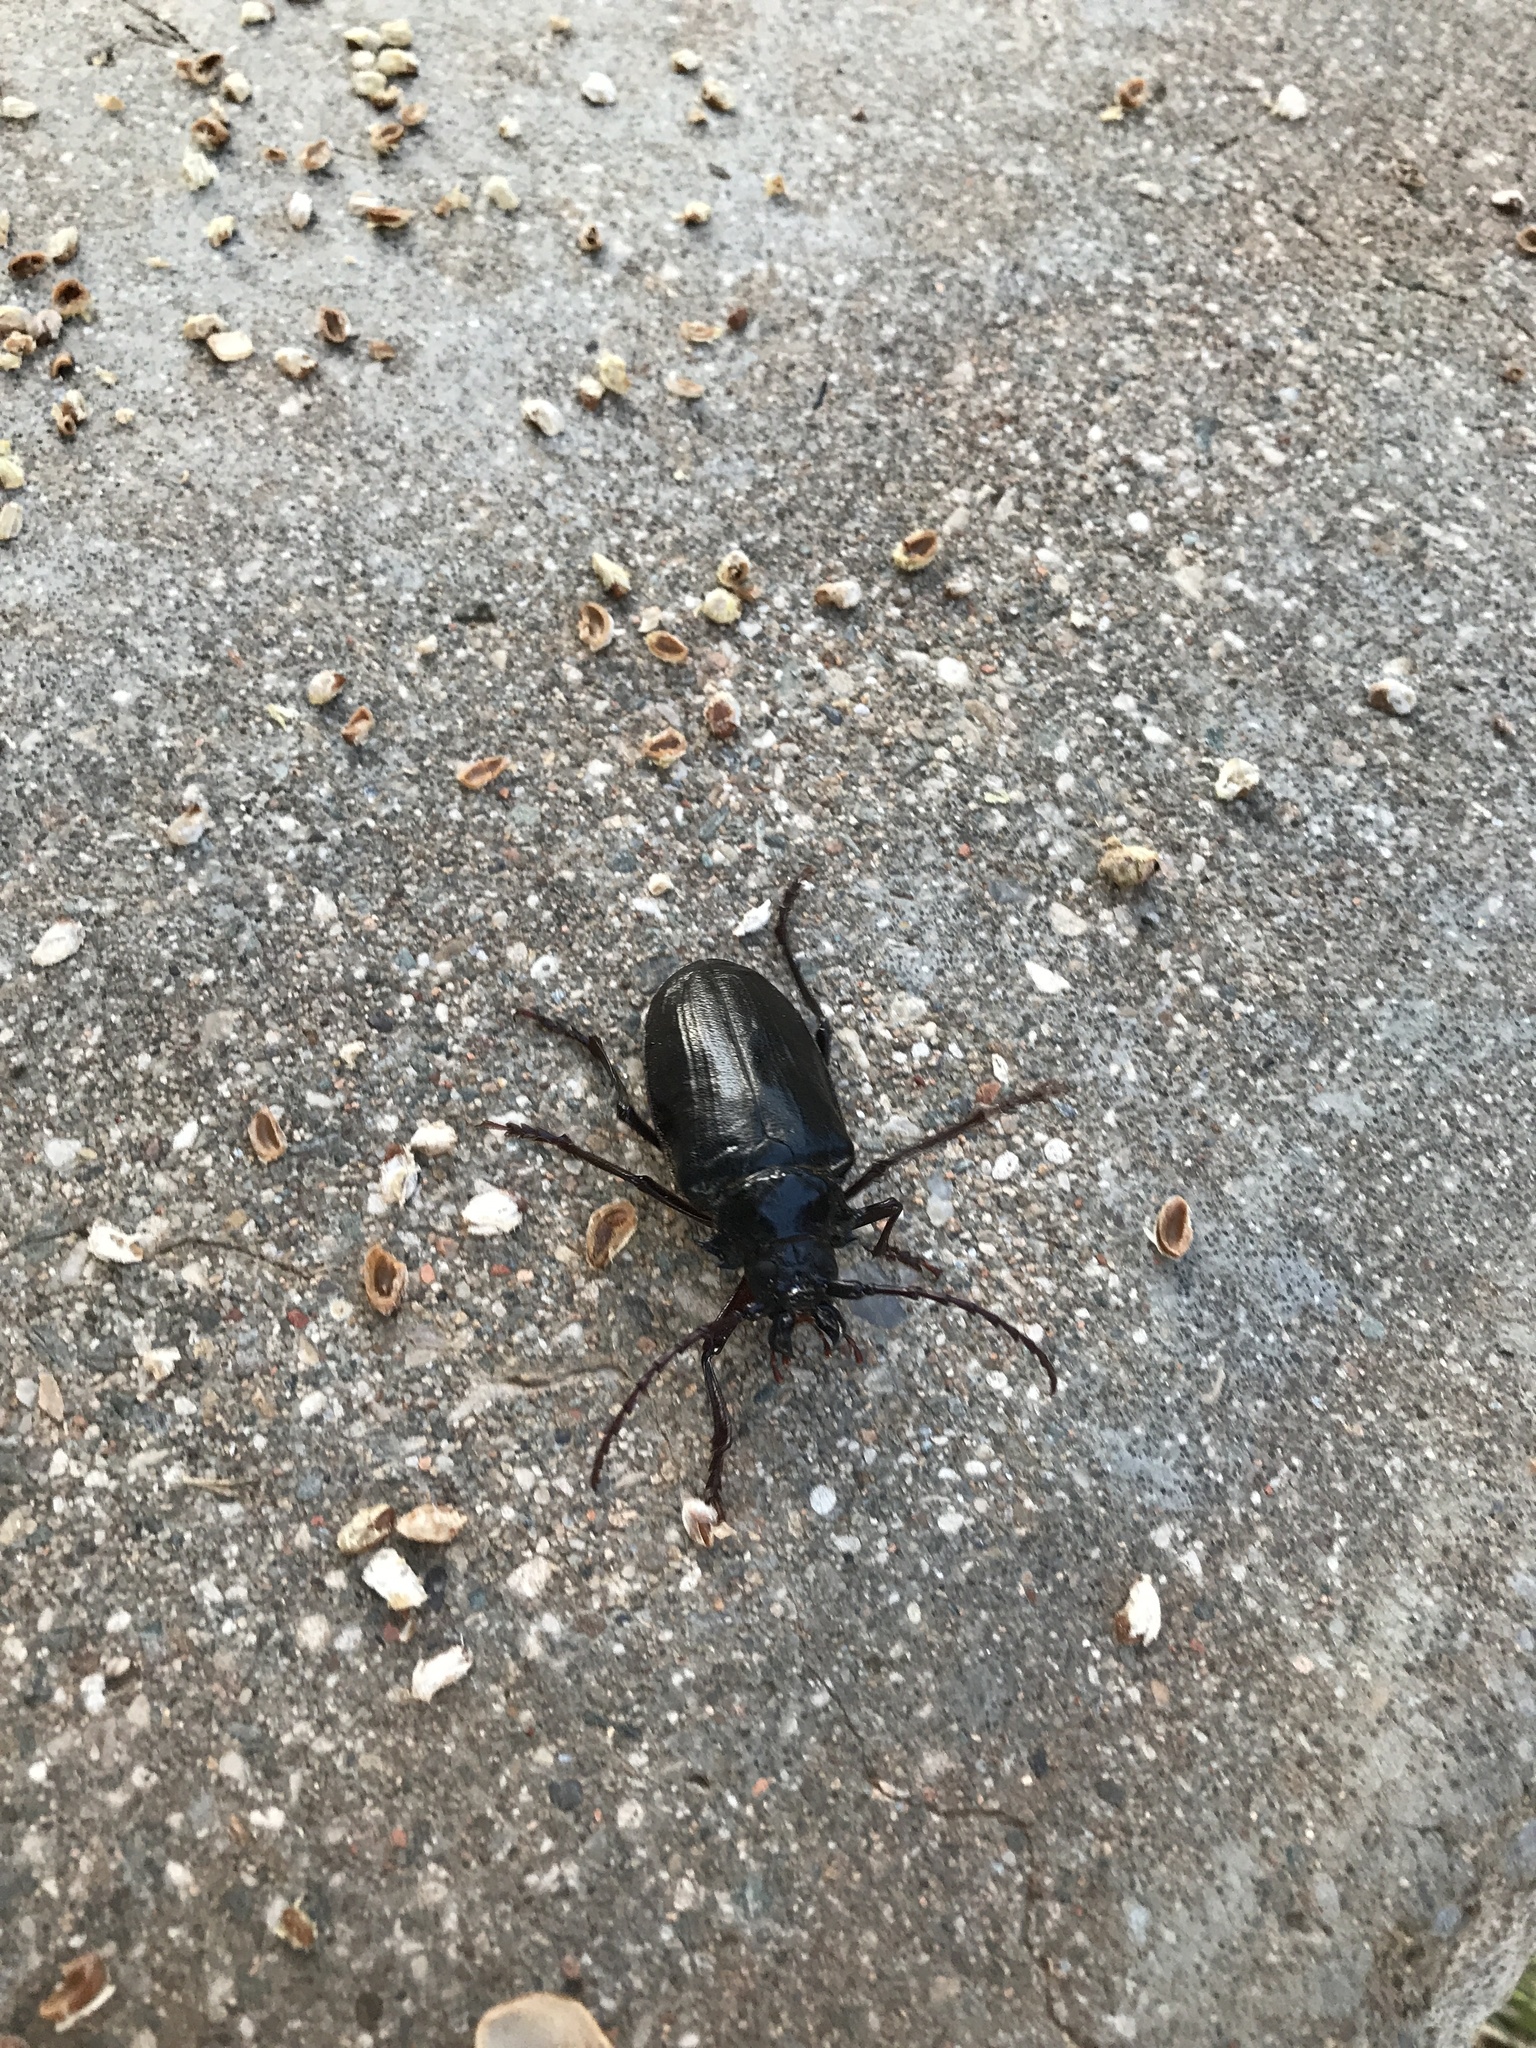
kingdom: Animalia
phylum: Arthropoda
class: Insecta
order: Coleoptera
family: Cerambycidae
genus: Prionus
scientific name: Prionus californicus
